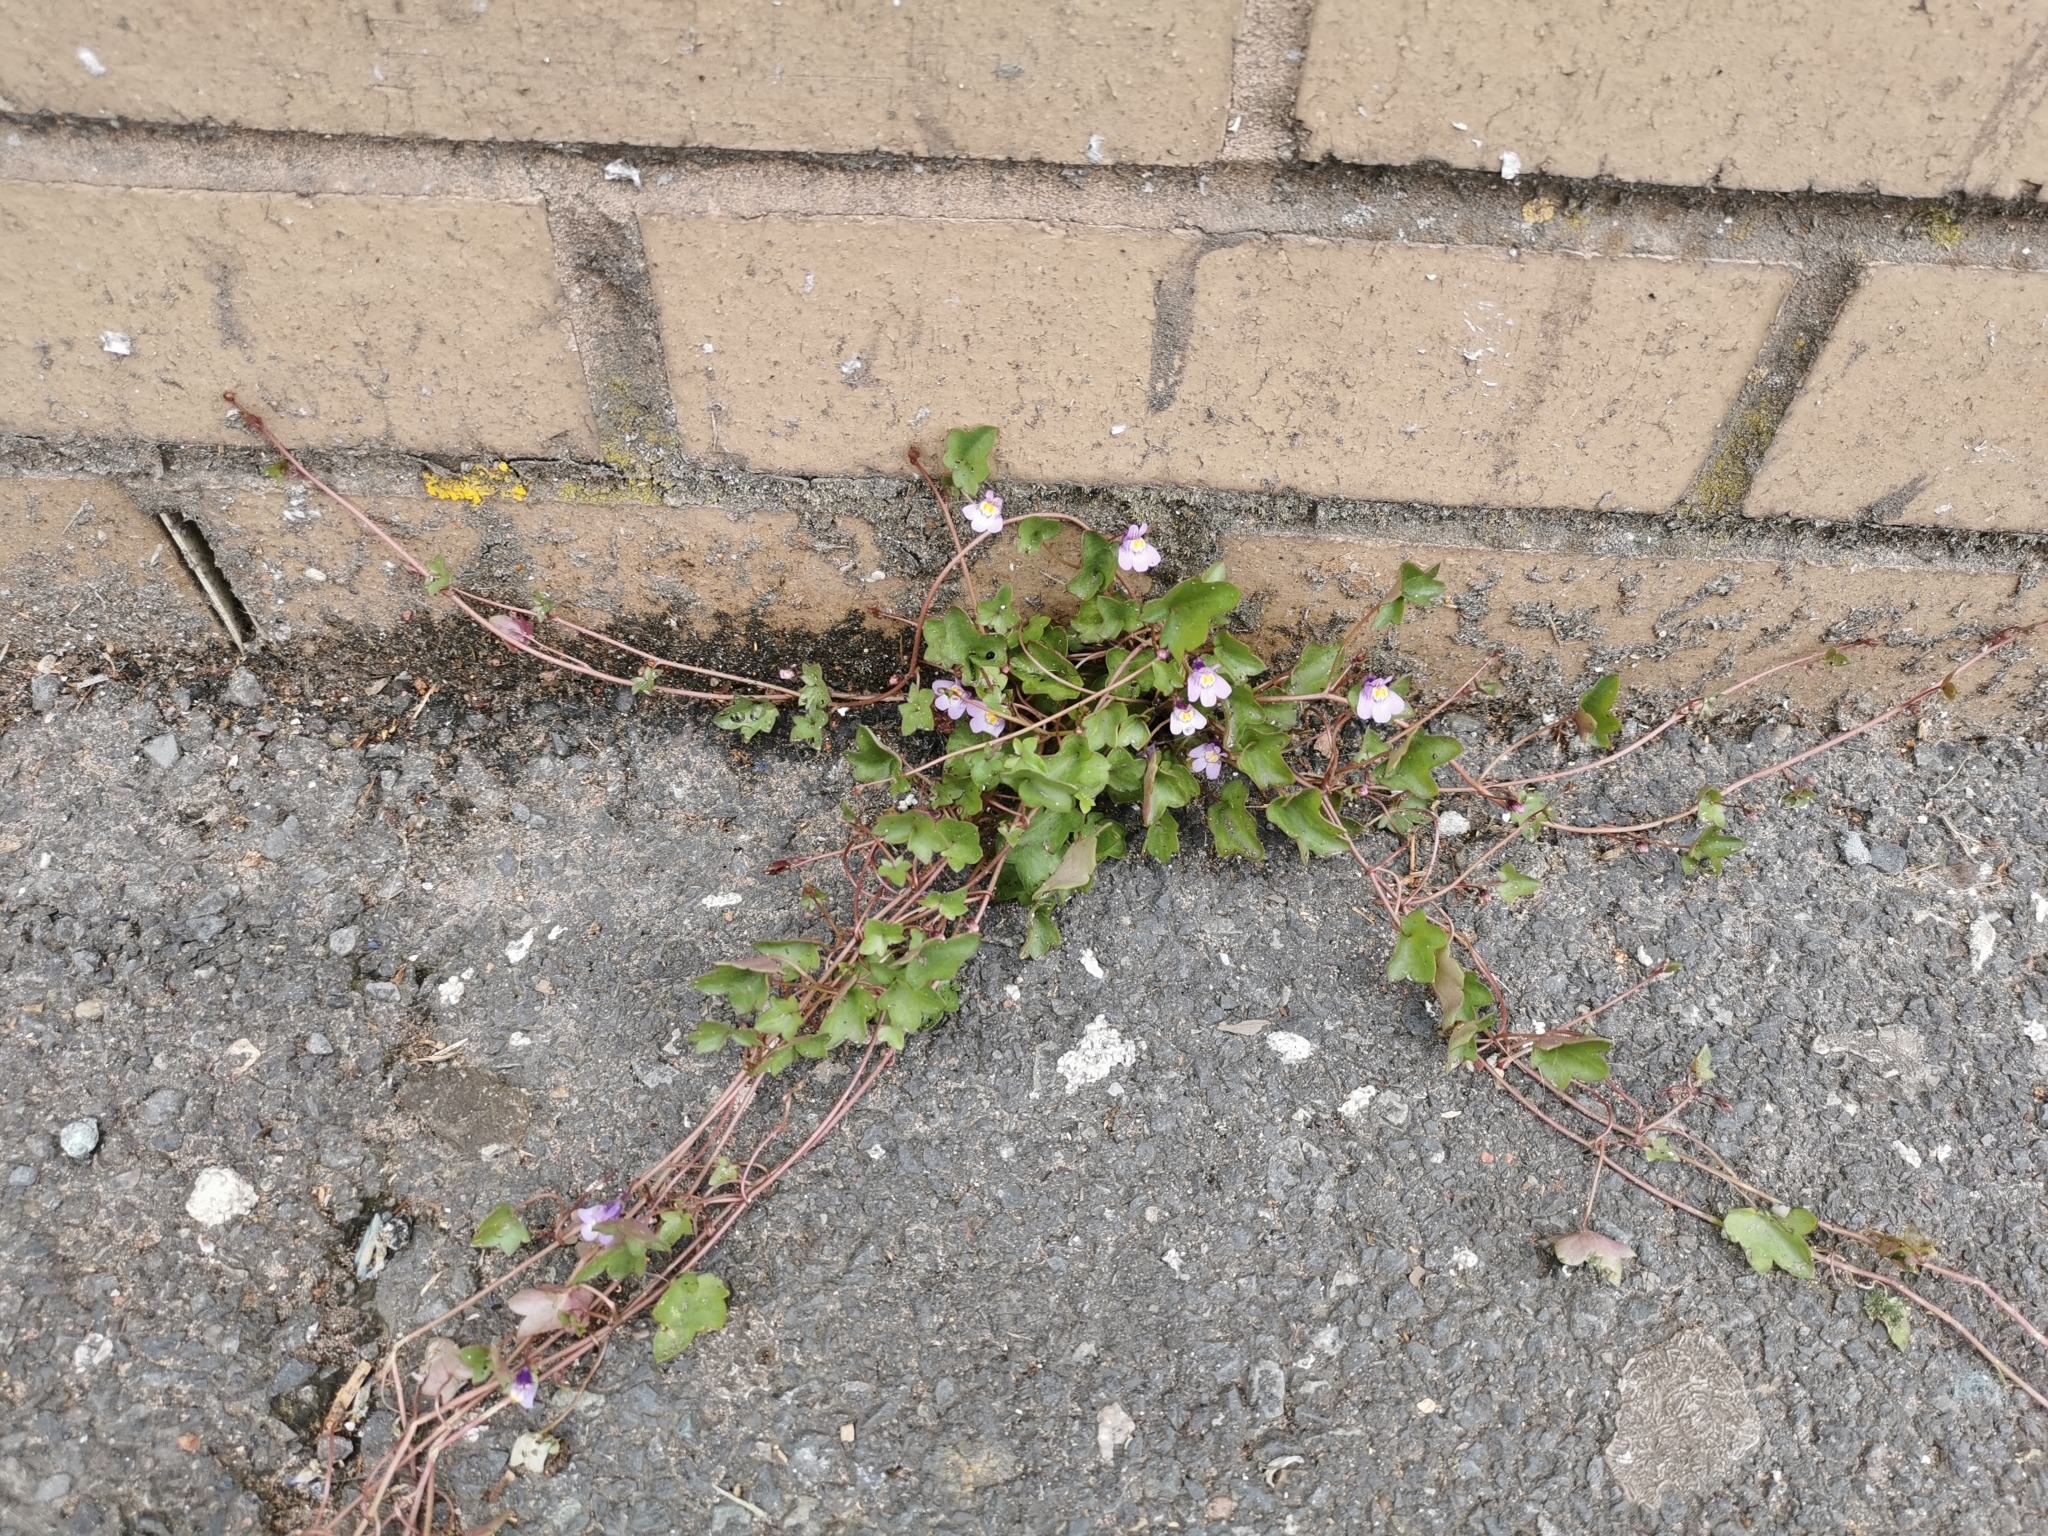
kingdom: Plantae
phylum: Tracheophyta
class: Magnoliopsida
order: Lamiales
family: Plantaginaceae
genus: Cymbalaria
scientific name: Cymbalaria muralis
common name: Ivy-leaved toadflax
